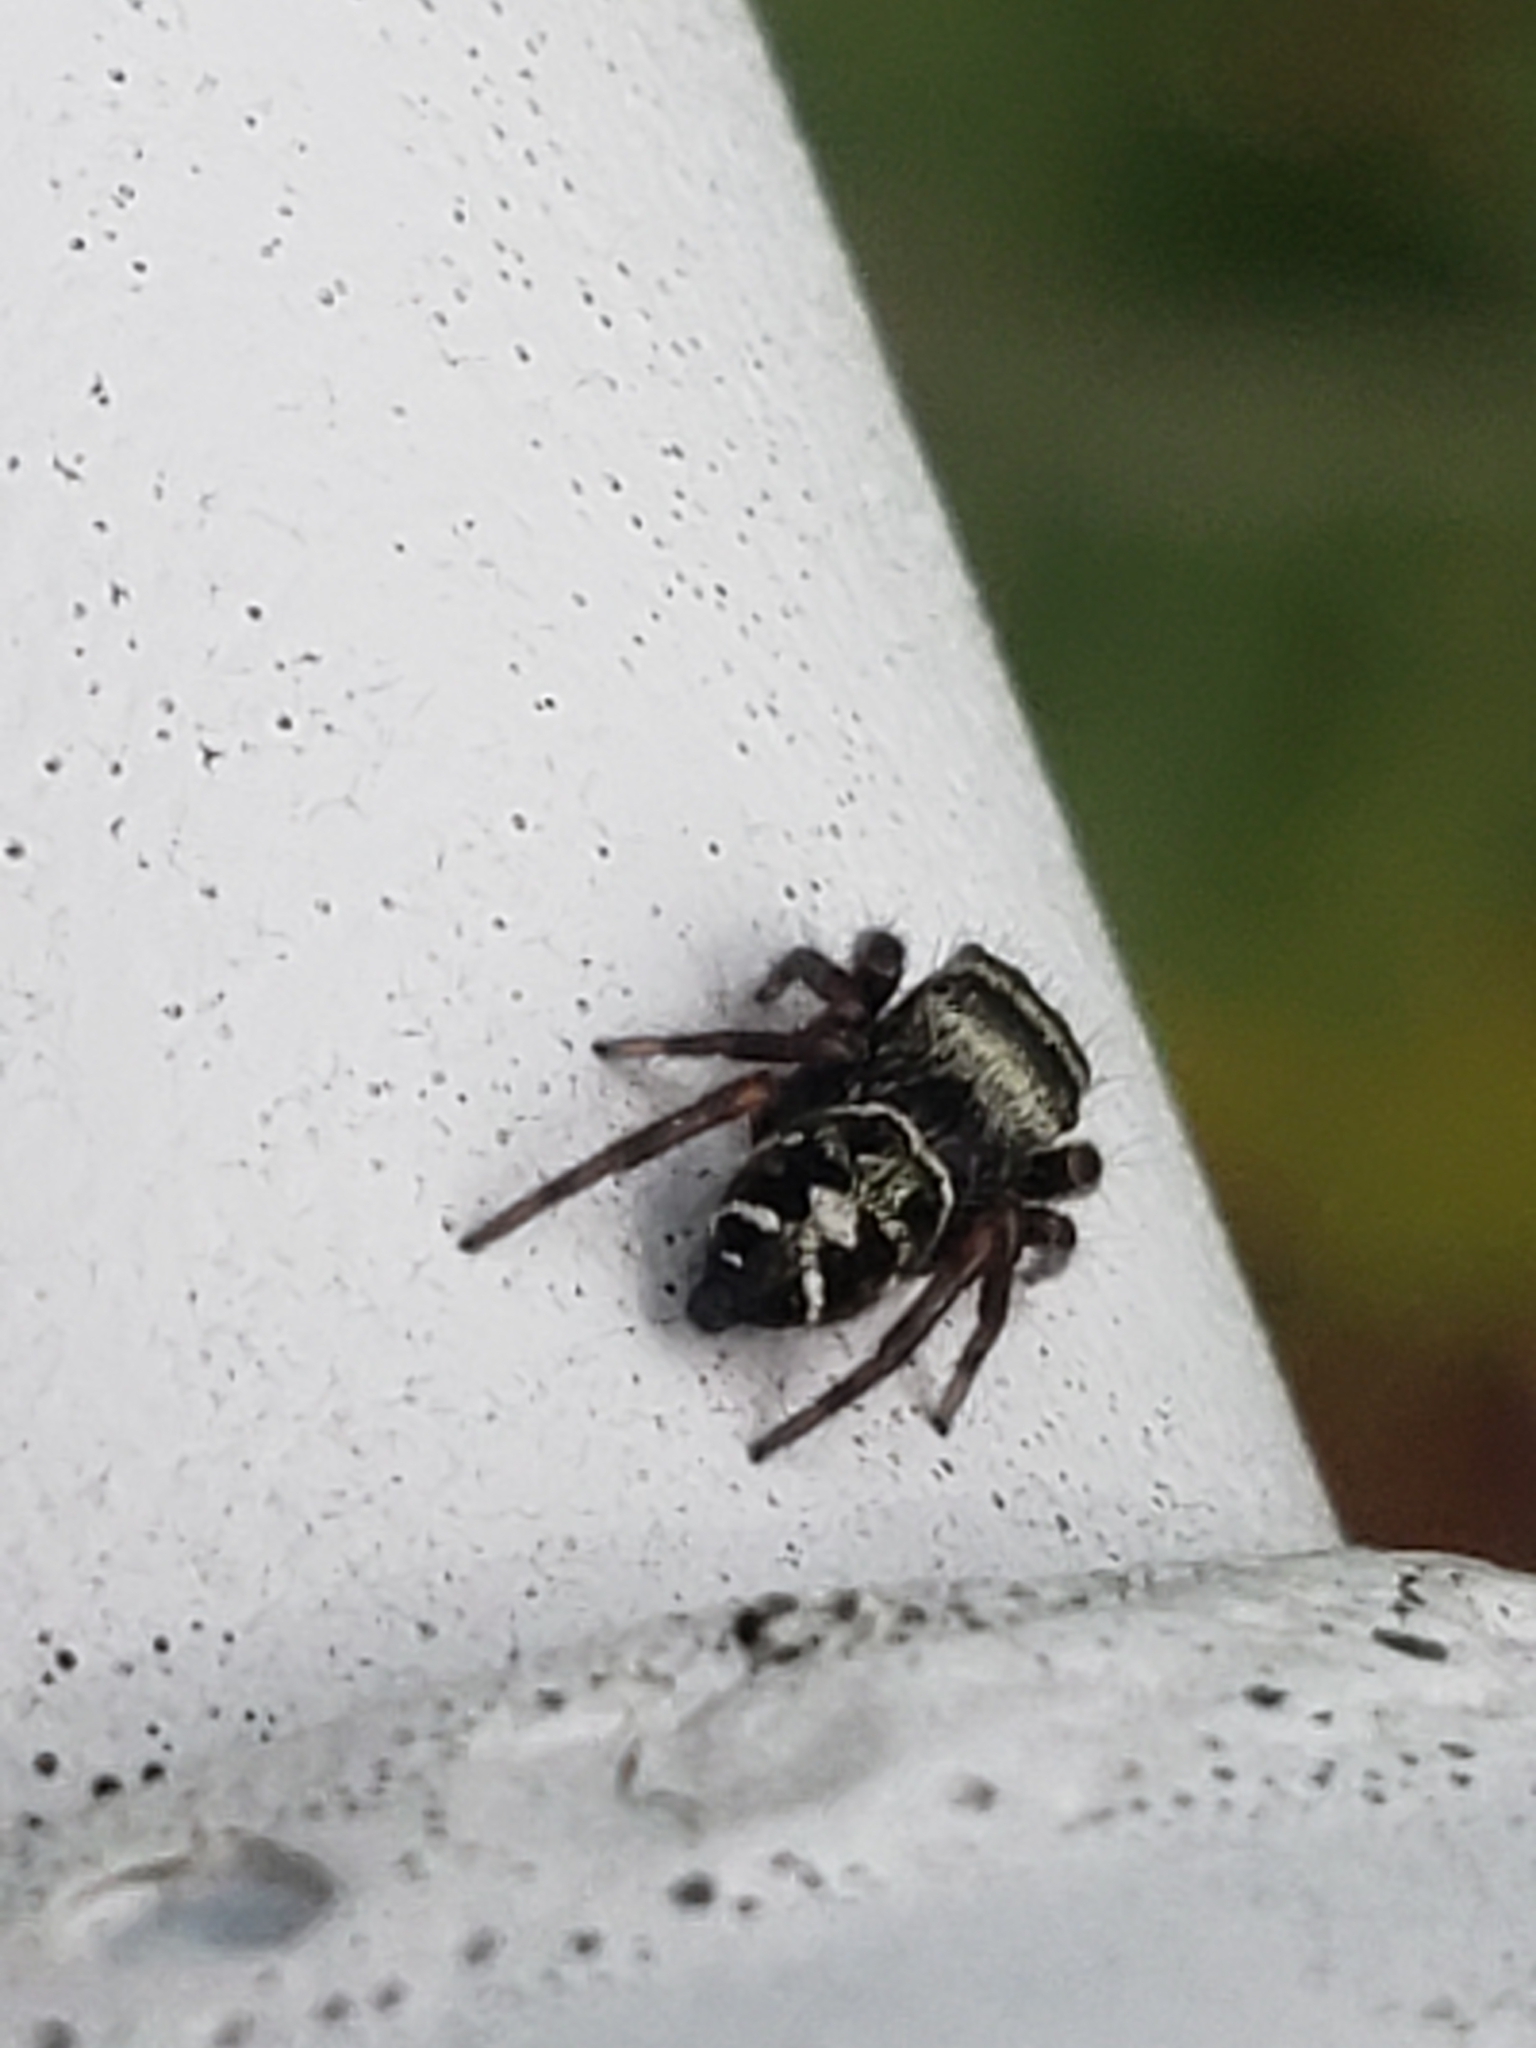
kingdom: Animalia
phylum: Arthropoda
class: Arachnida
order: Araneae
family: Salticidae
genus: Phidippus
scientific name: Phidippus audax
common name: Bold jumper
